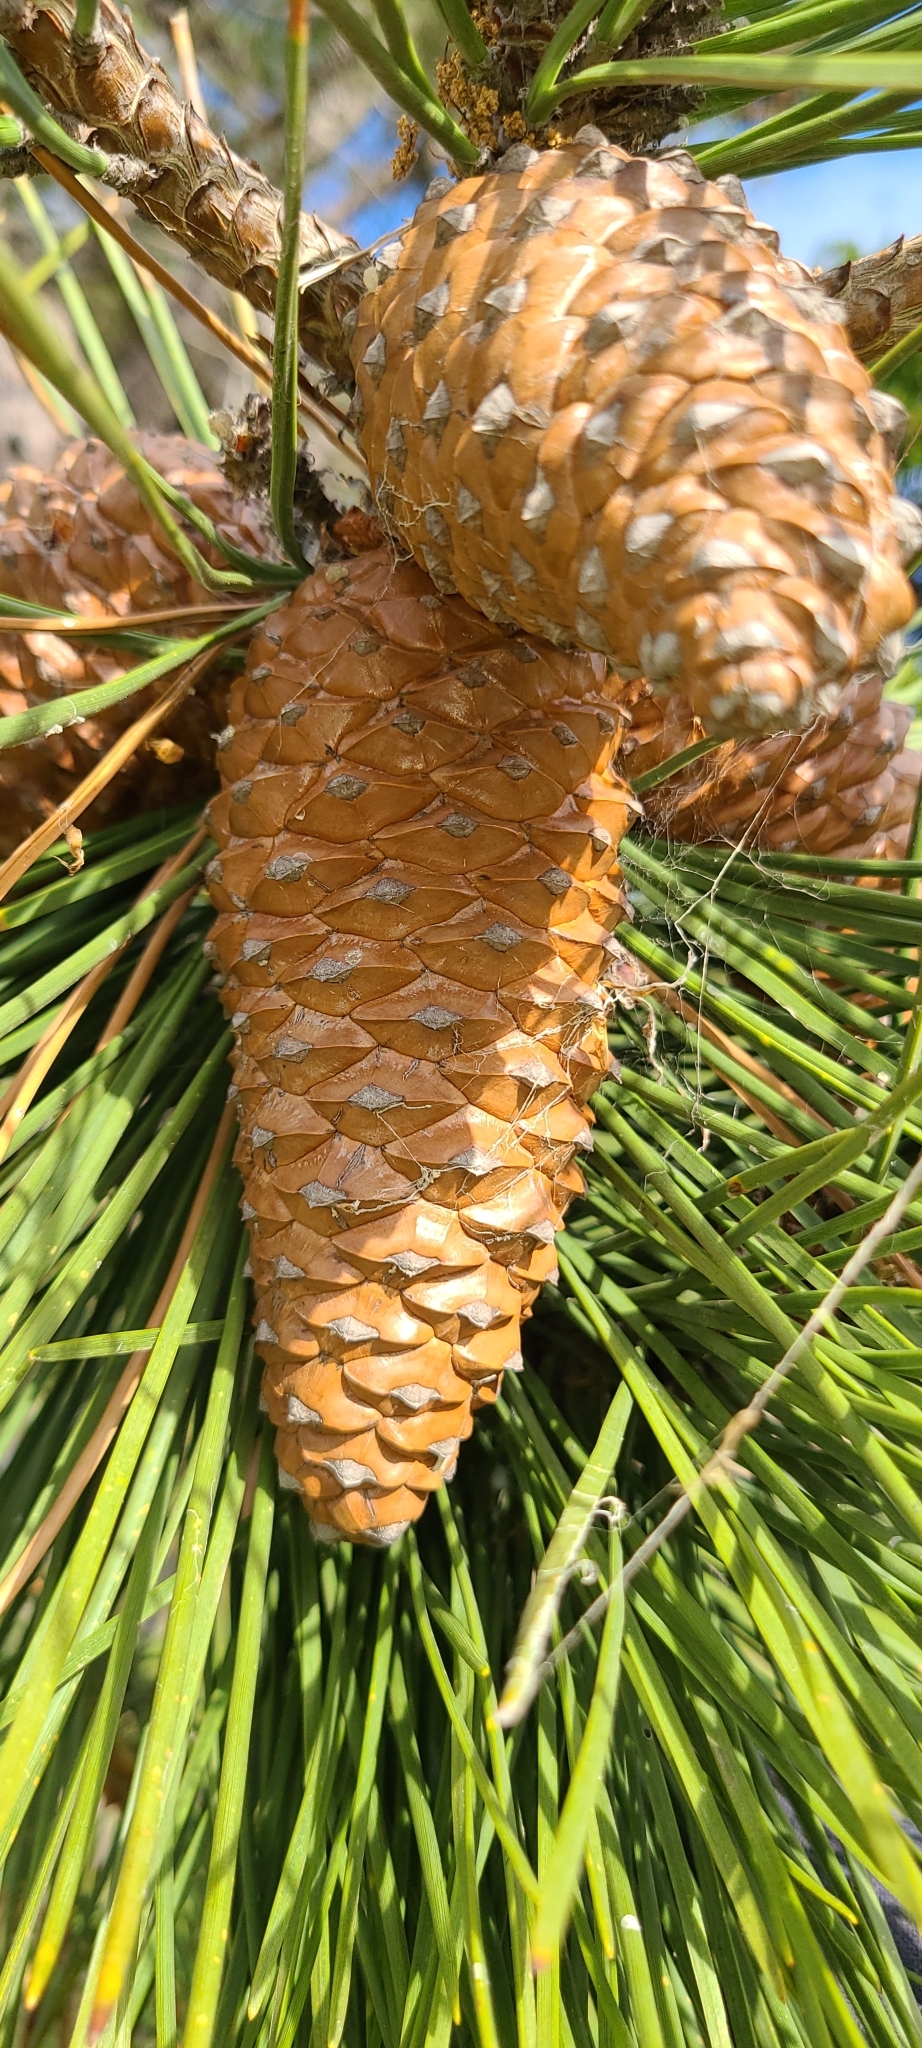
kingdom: Plantae
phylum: Tracheophyta
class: Pinopsida
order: Pinales
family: Pinaceae
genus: Pinus
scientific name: Pinus pinaster
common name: Maritime pine
